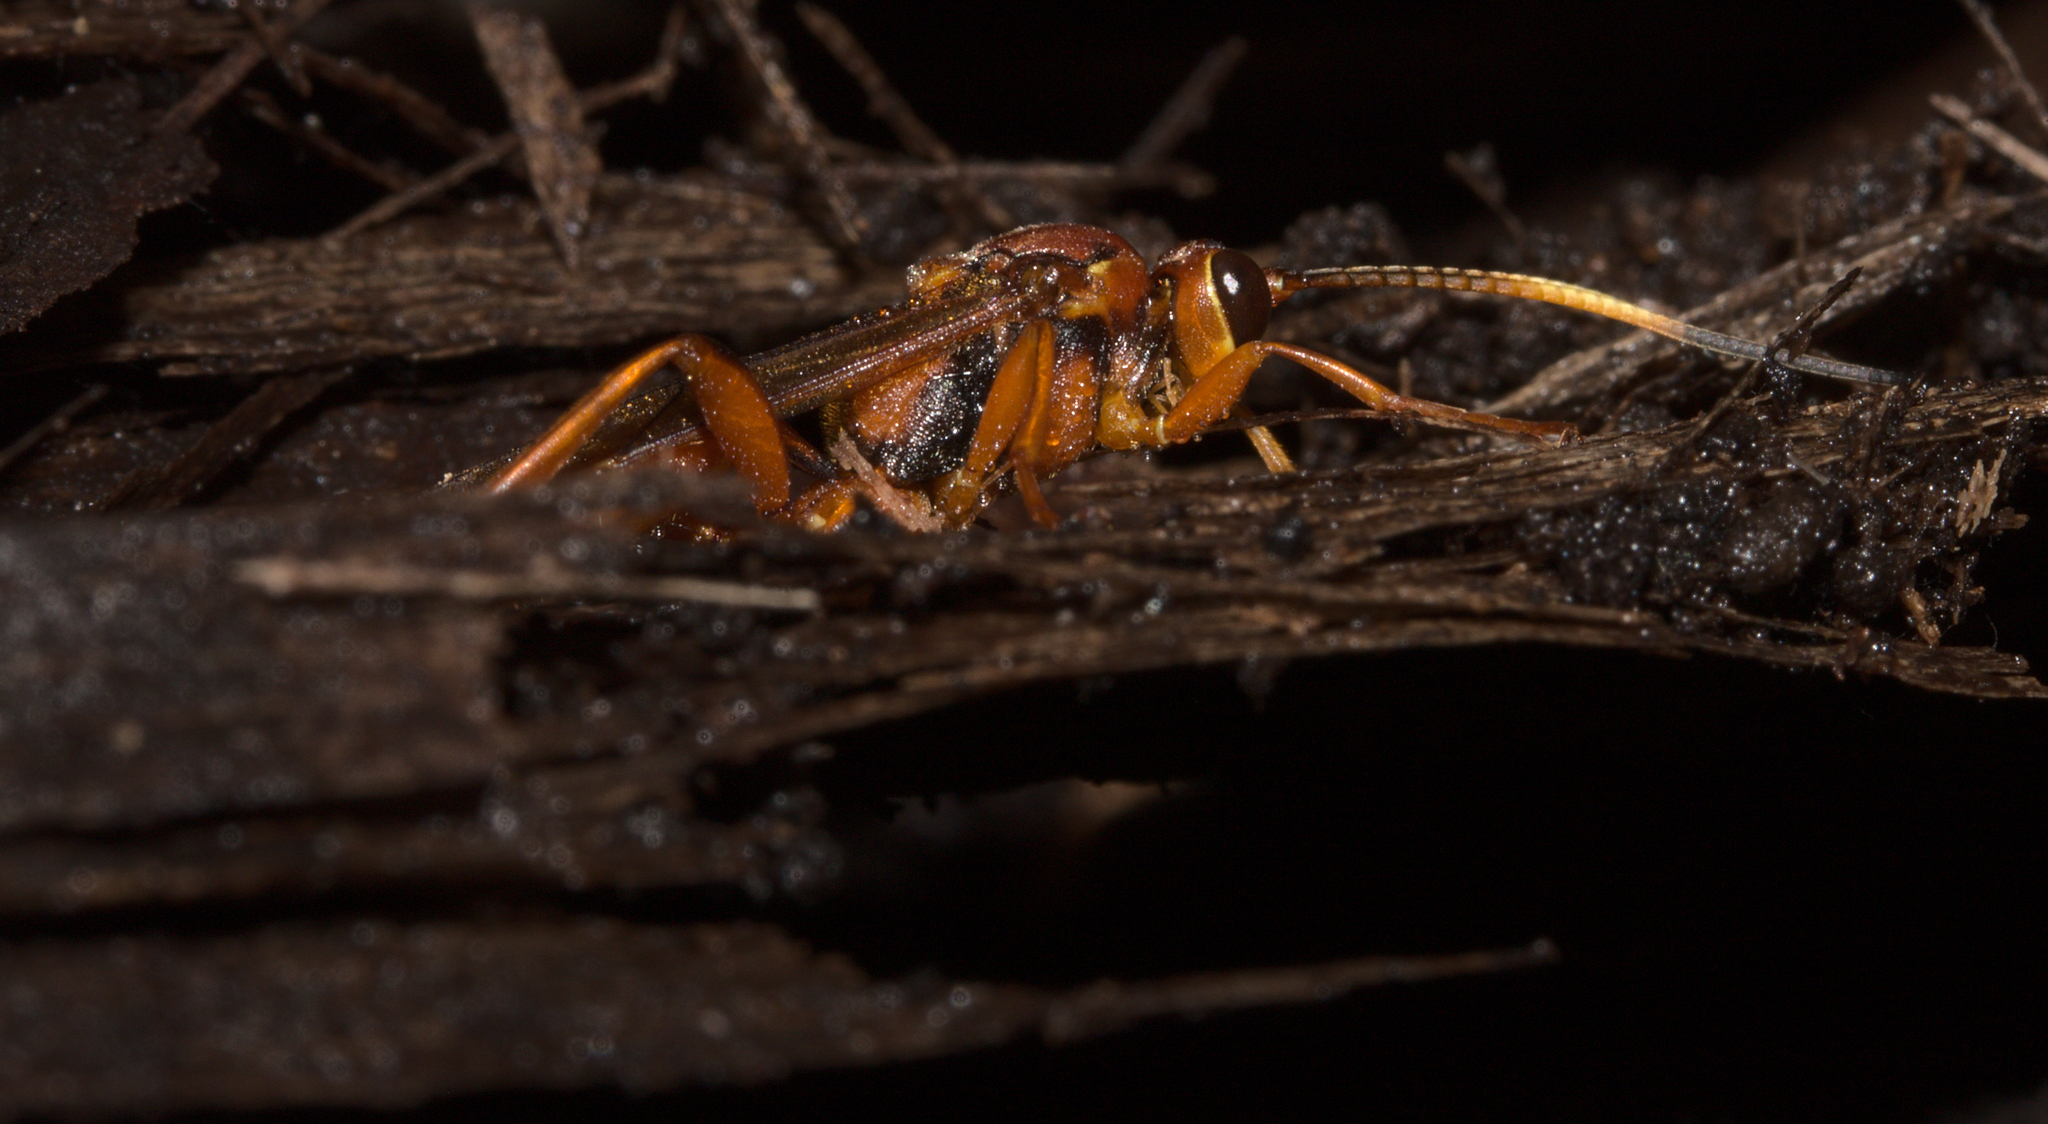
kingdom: Animalia
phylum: Arthropoda
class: Insecta
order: Hymenoptera
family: Ichneumonidae
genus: Lymantrichneumon
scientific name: Lymantrichneumon disparis
